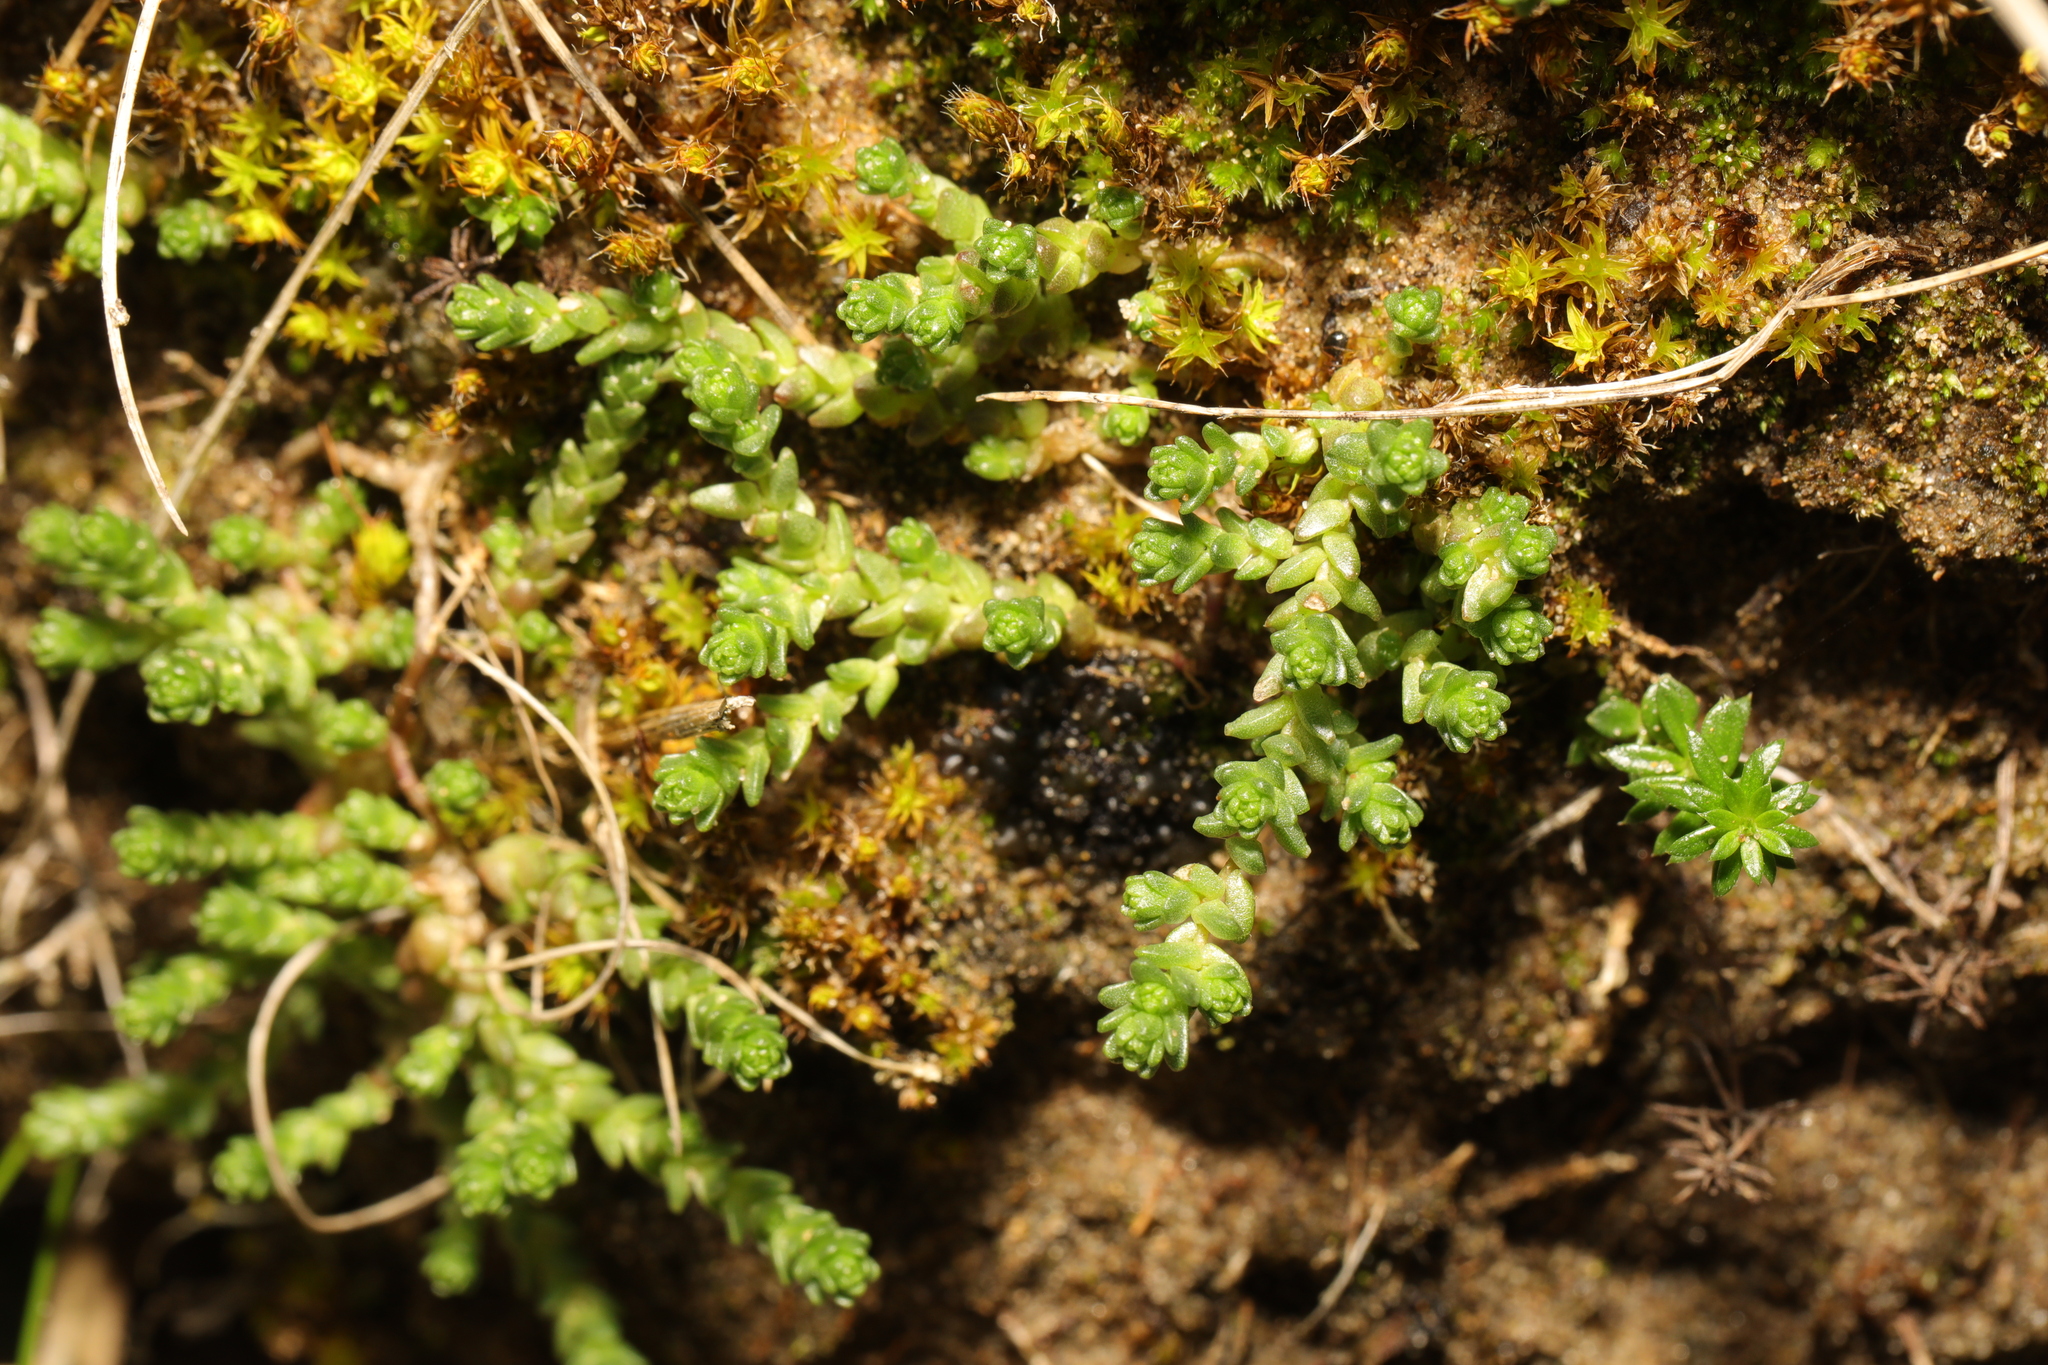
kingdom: Plantae
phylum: Tracheophyta
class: Magnoliopsida
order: Saxifragales
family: Crassulaceae
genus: Sedum
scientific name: Sedum acre
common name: Biting stonecrop
